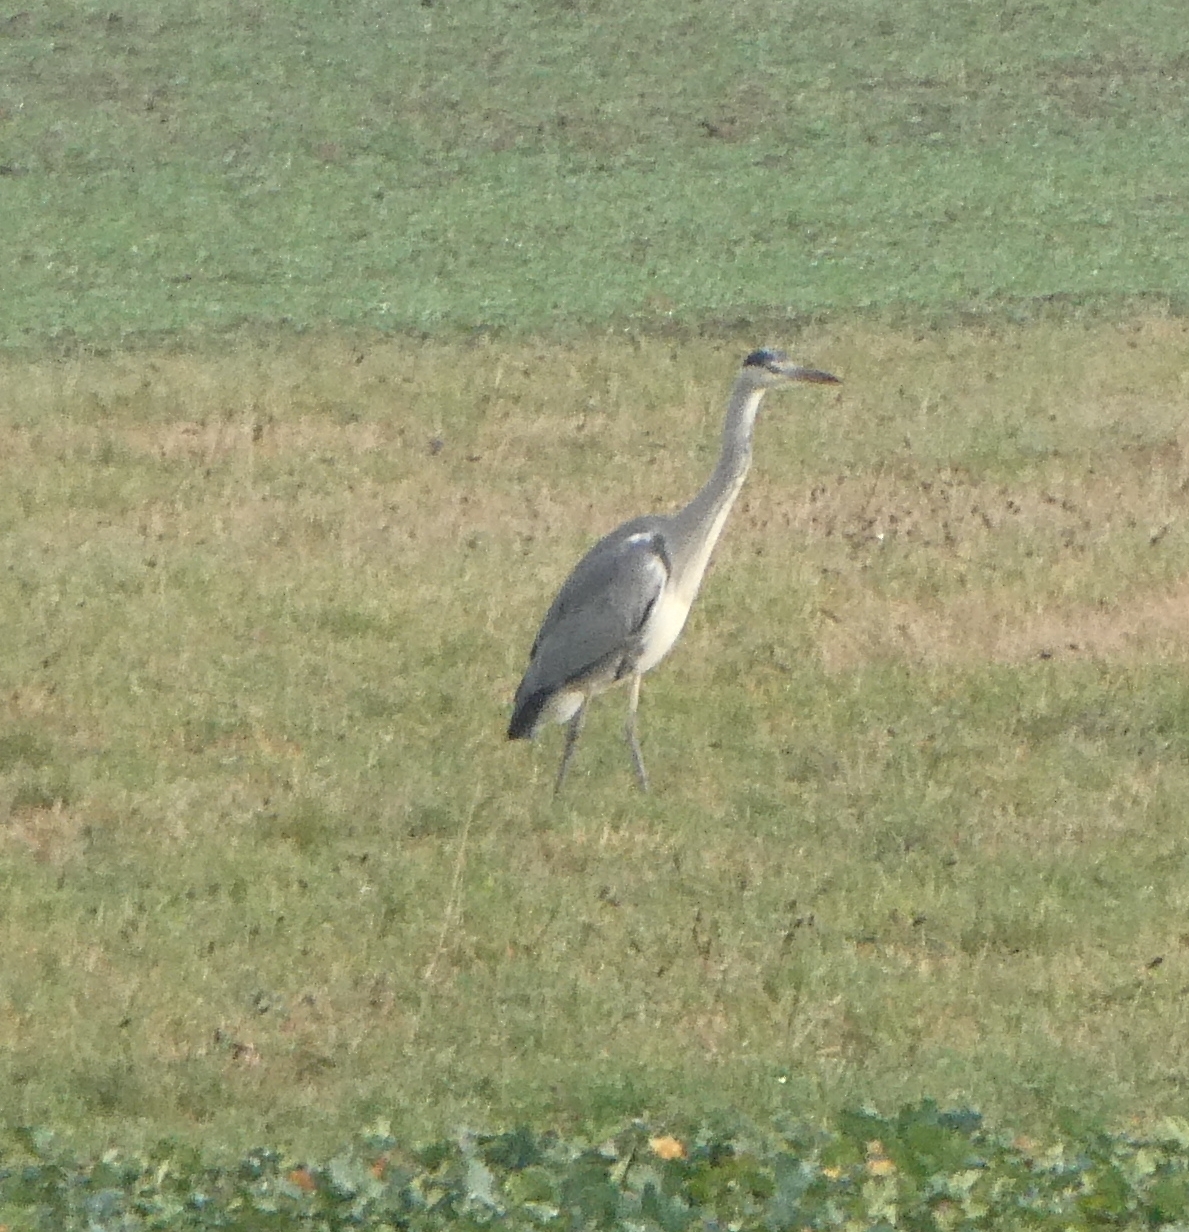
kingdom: Animalia
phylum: Chordata
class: Aves
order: Pelecaniformes
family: Ardeidae
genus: Ardea
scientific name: Ardea cinerea
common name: Grey heron
